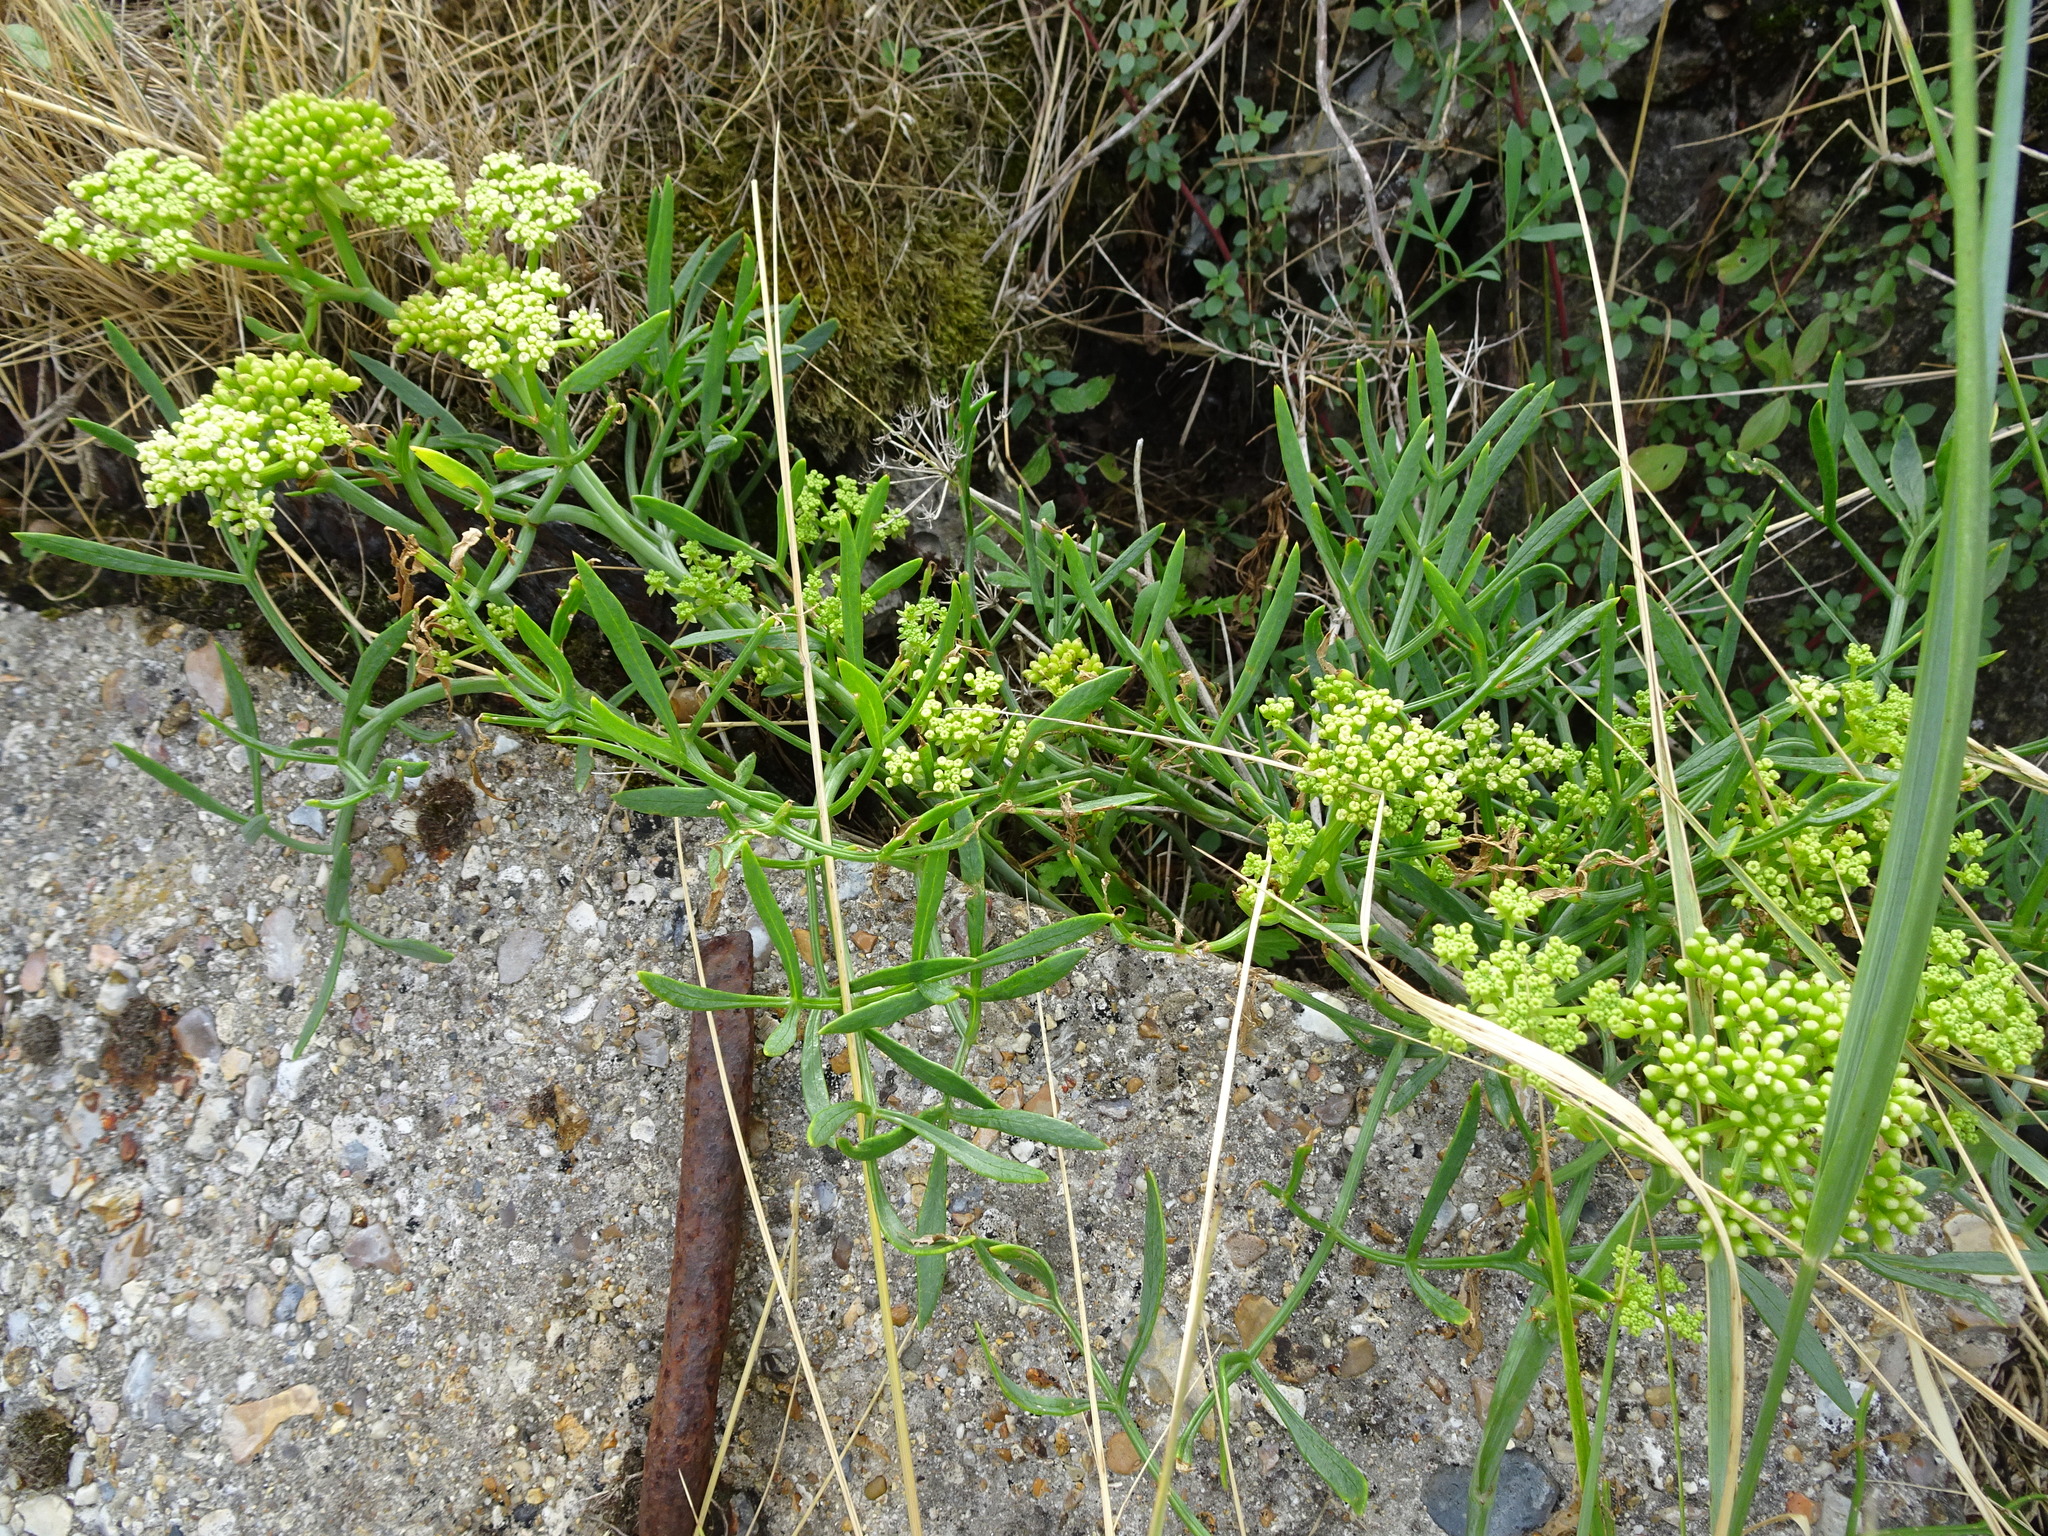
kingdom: Plantae
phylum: Tracheophyta
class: Magnoliopsida
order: Apiales
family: Apiaceae
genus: Crithmum
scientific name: Crithmum maritimum
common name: Rock samphire
